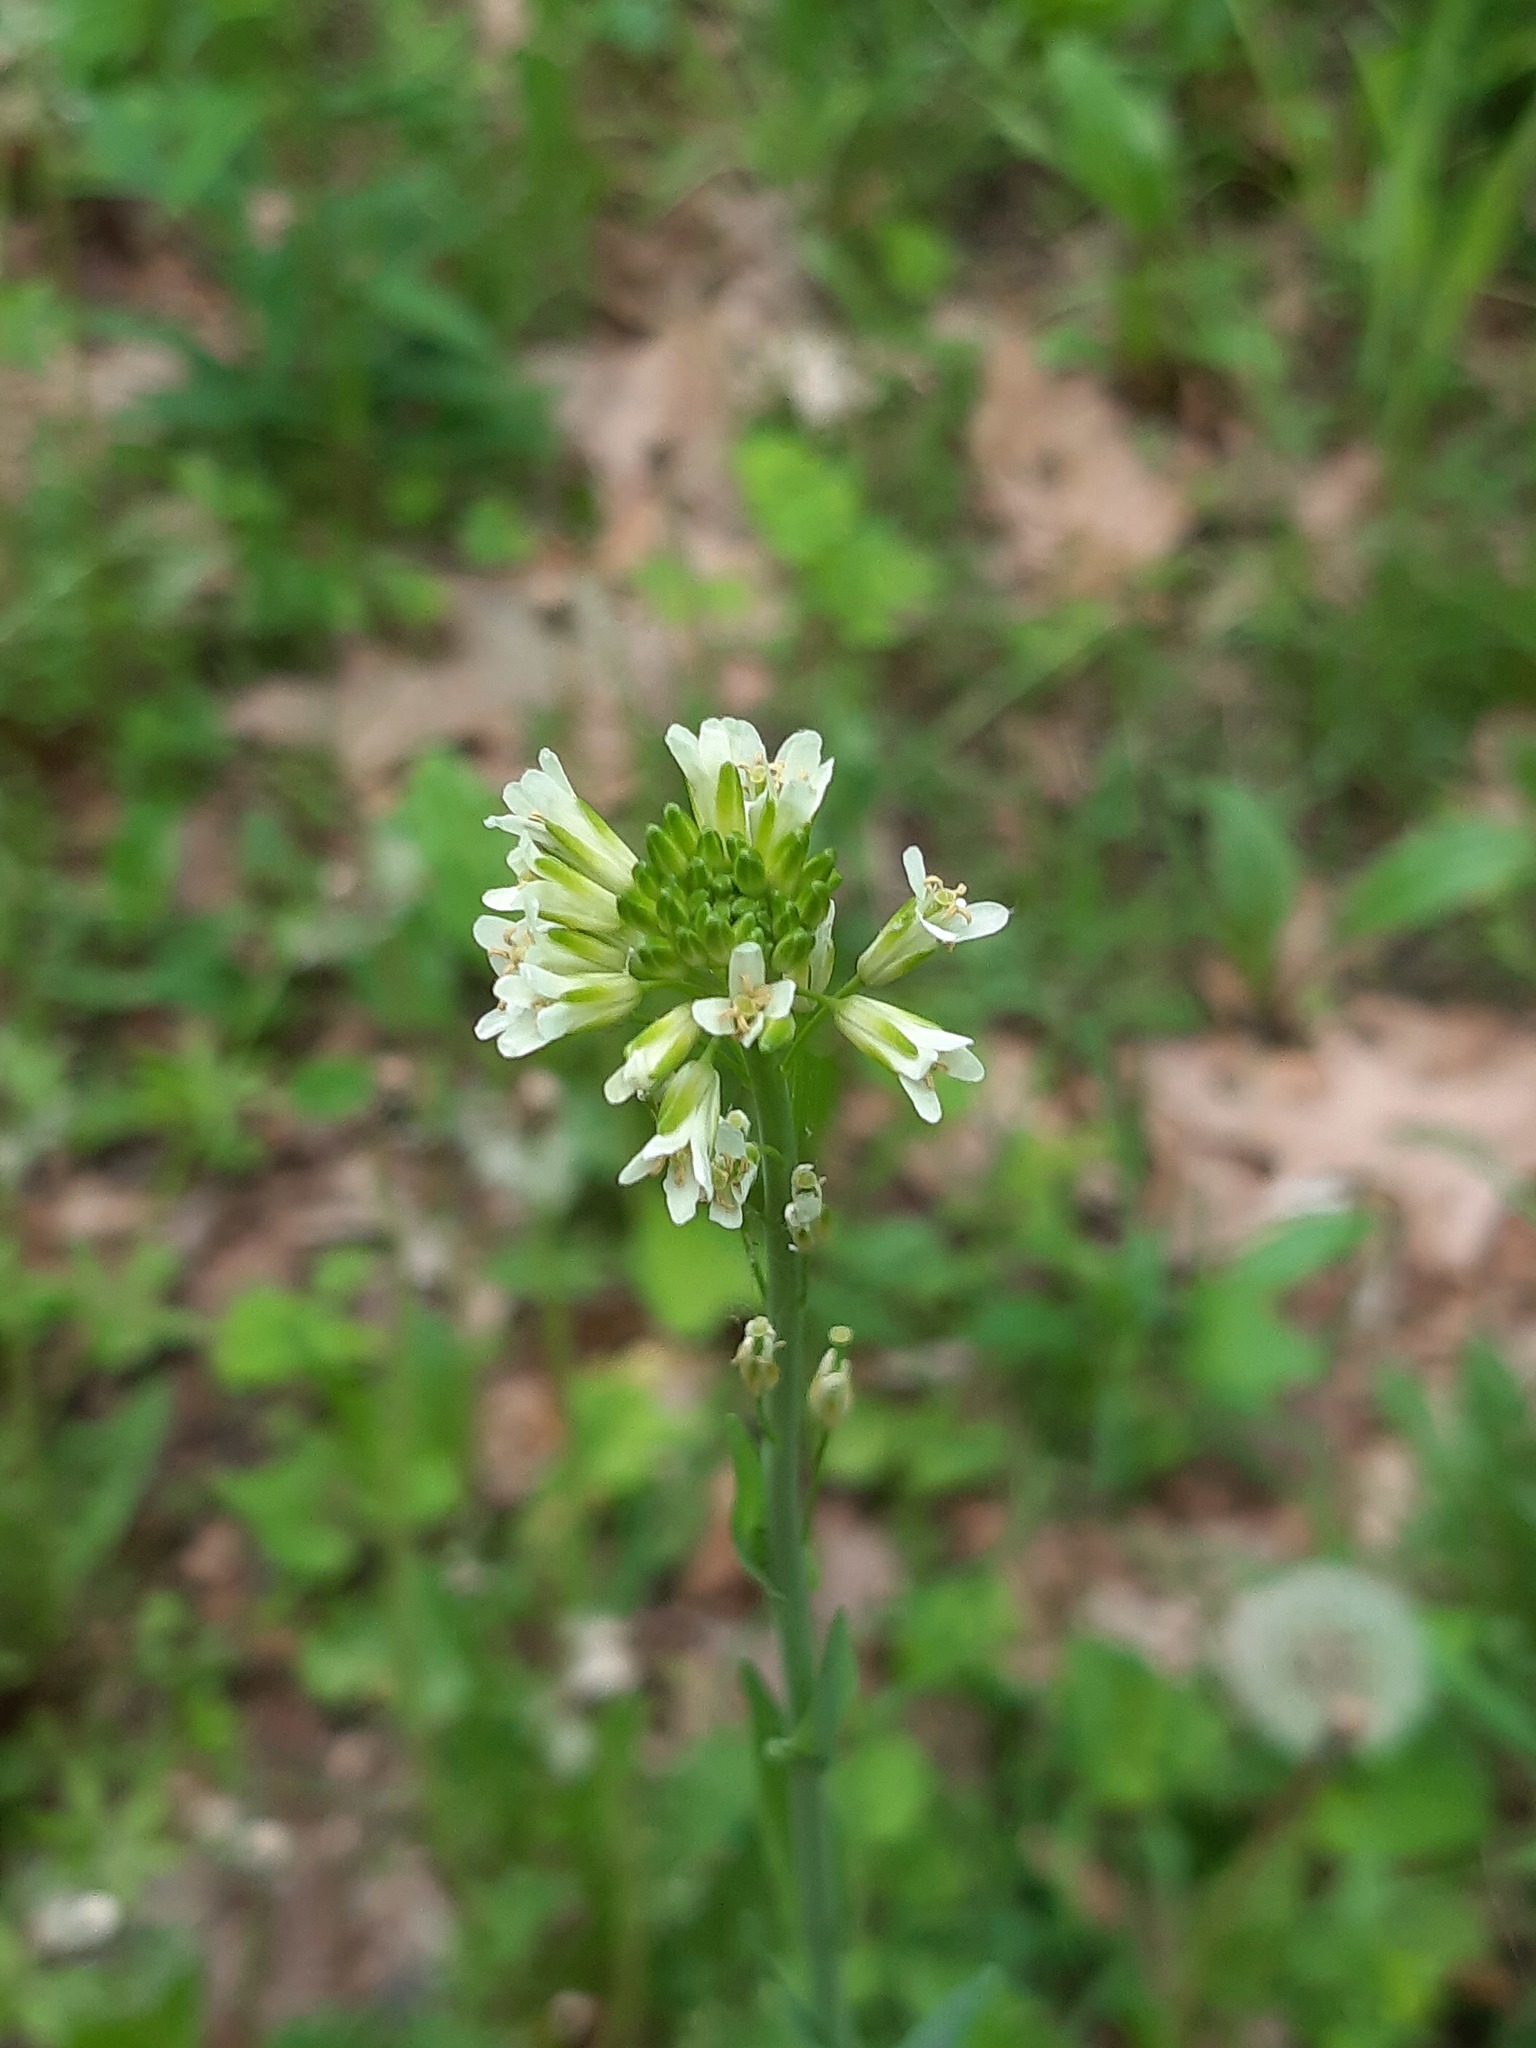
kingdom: Plantae
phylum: Tracheophyta
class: Magnoliopsida
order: Brassicales
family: Brassicaceae
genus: Turritis
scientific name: Turritis glabra
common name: Tower rockcress
